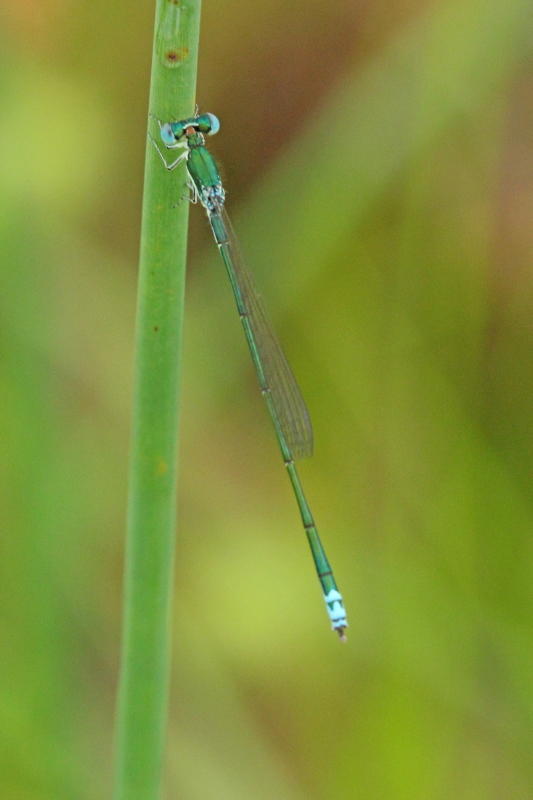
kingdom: Animalia
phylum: Arthropoda
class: Insecta
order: Odonata
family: Coenagrionidae
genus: Nehalennia
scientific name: Nehalennia irene
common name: Sedge sprite
